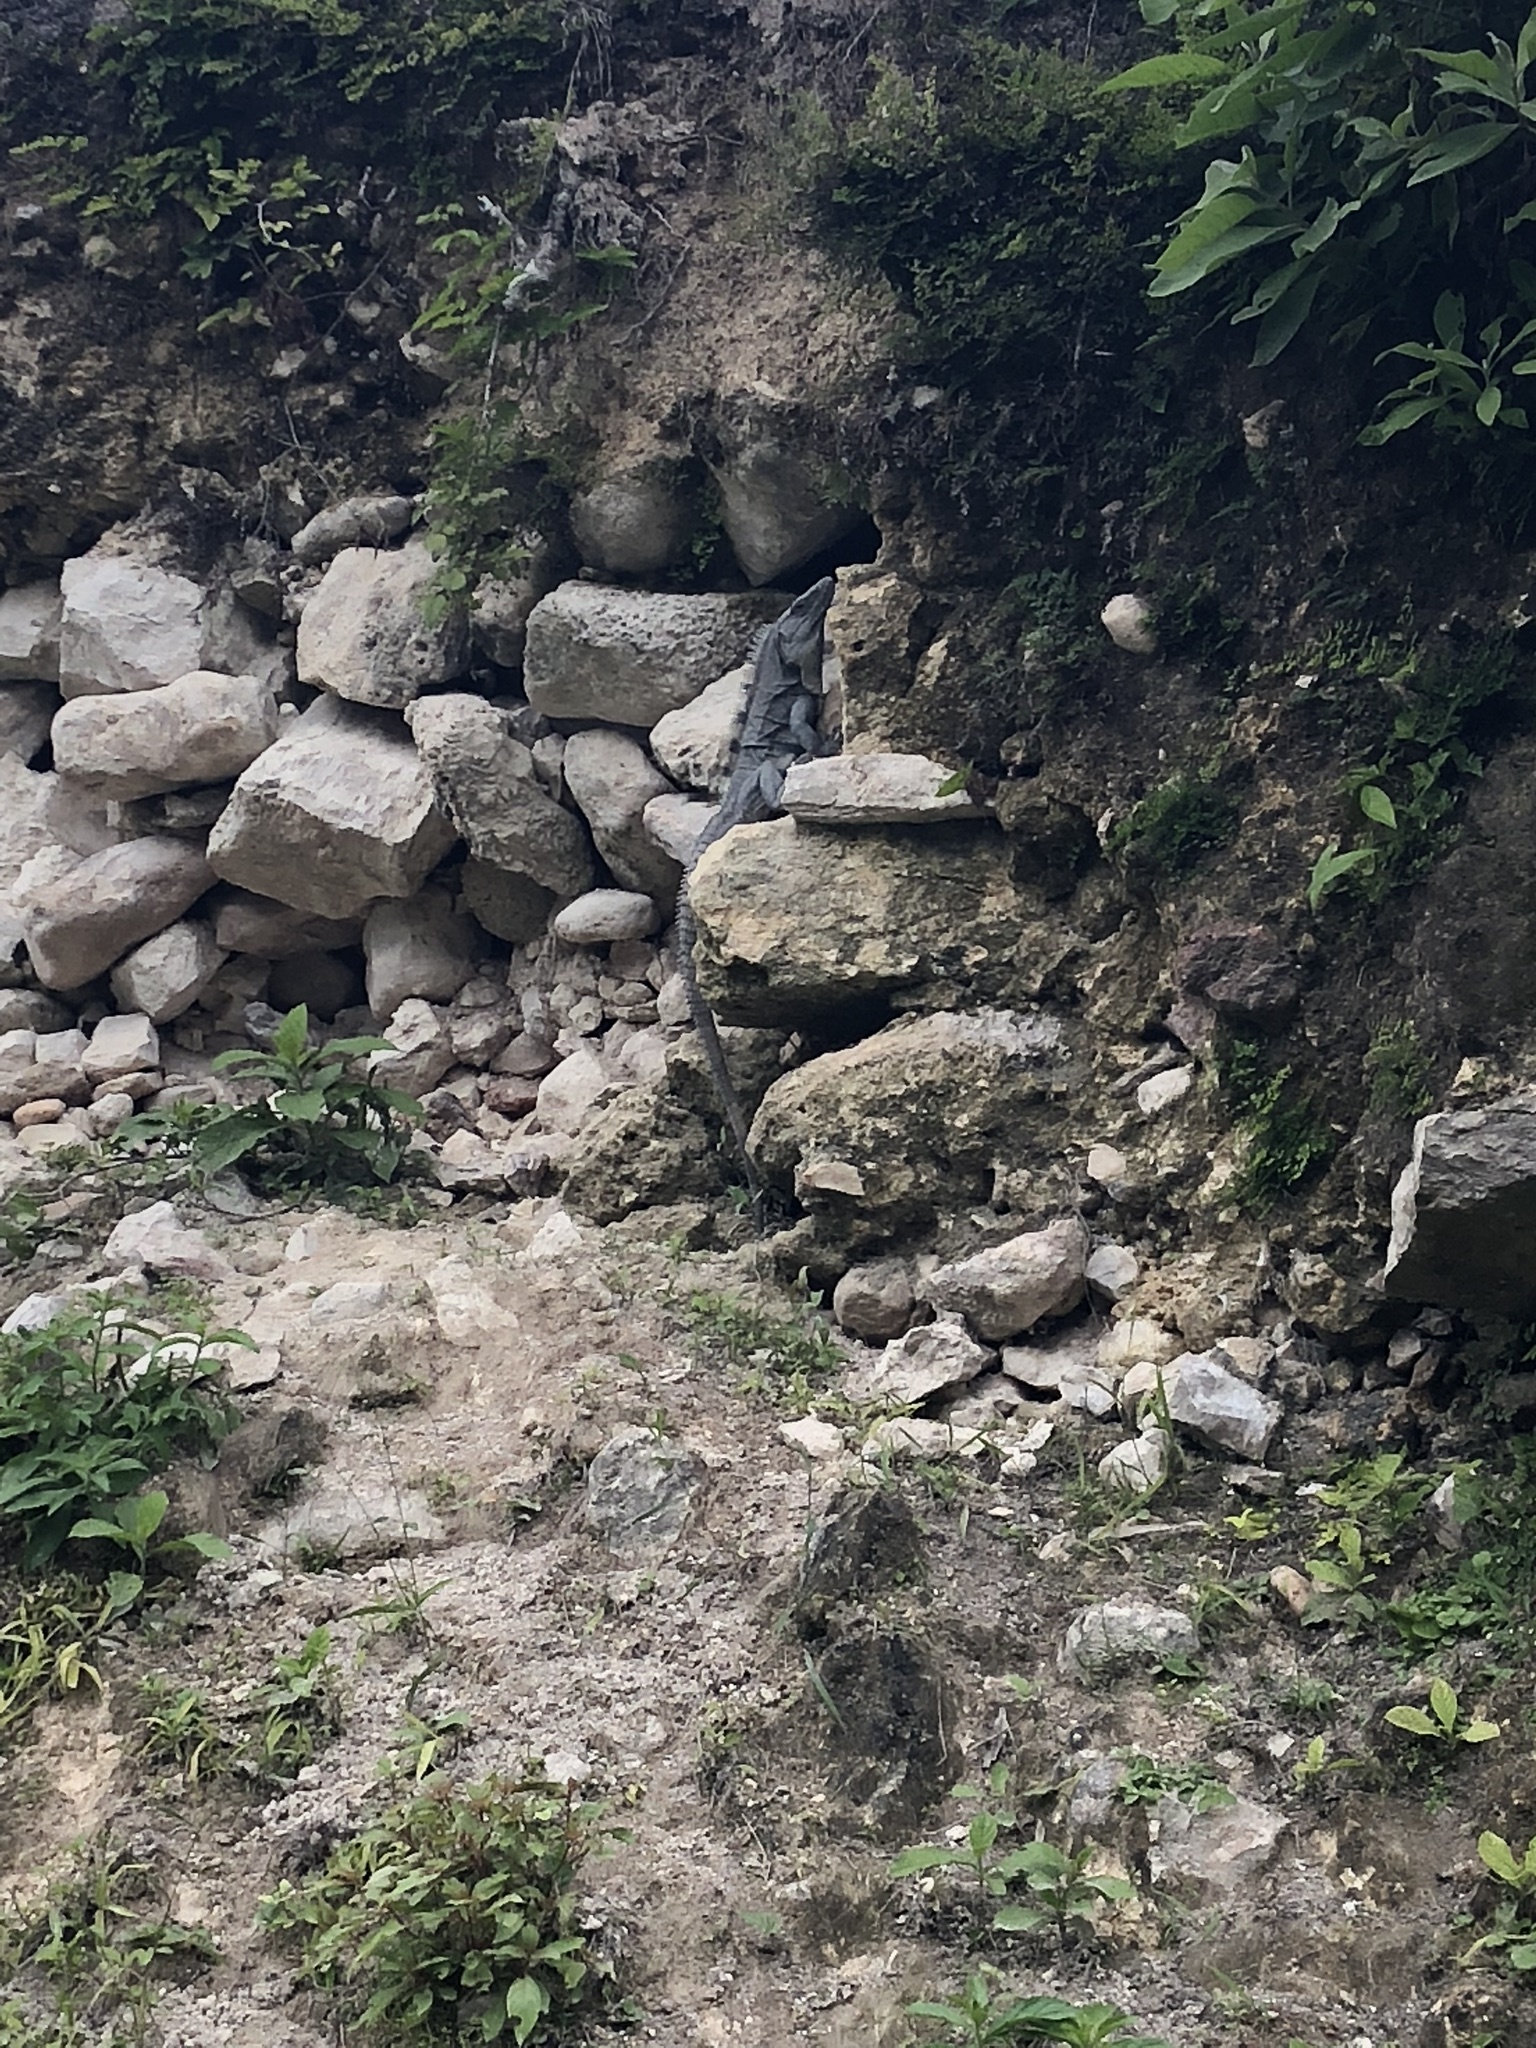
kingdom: Animalia
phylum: Chordata
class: Squamata
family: Iguanidae
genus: Ctenosaura
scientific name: Ctenosaura similis
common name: Black spiny-tailed iguana
